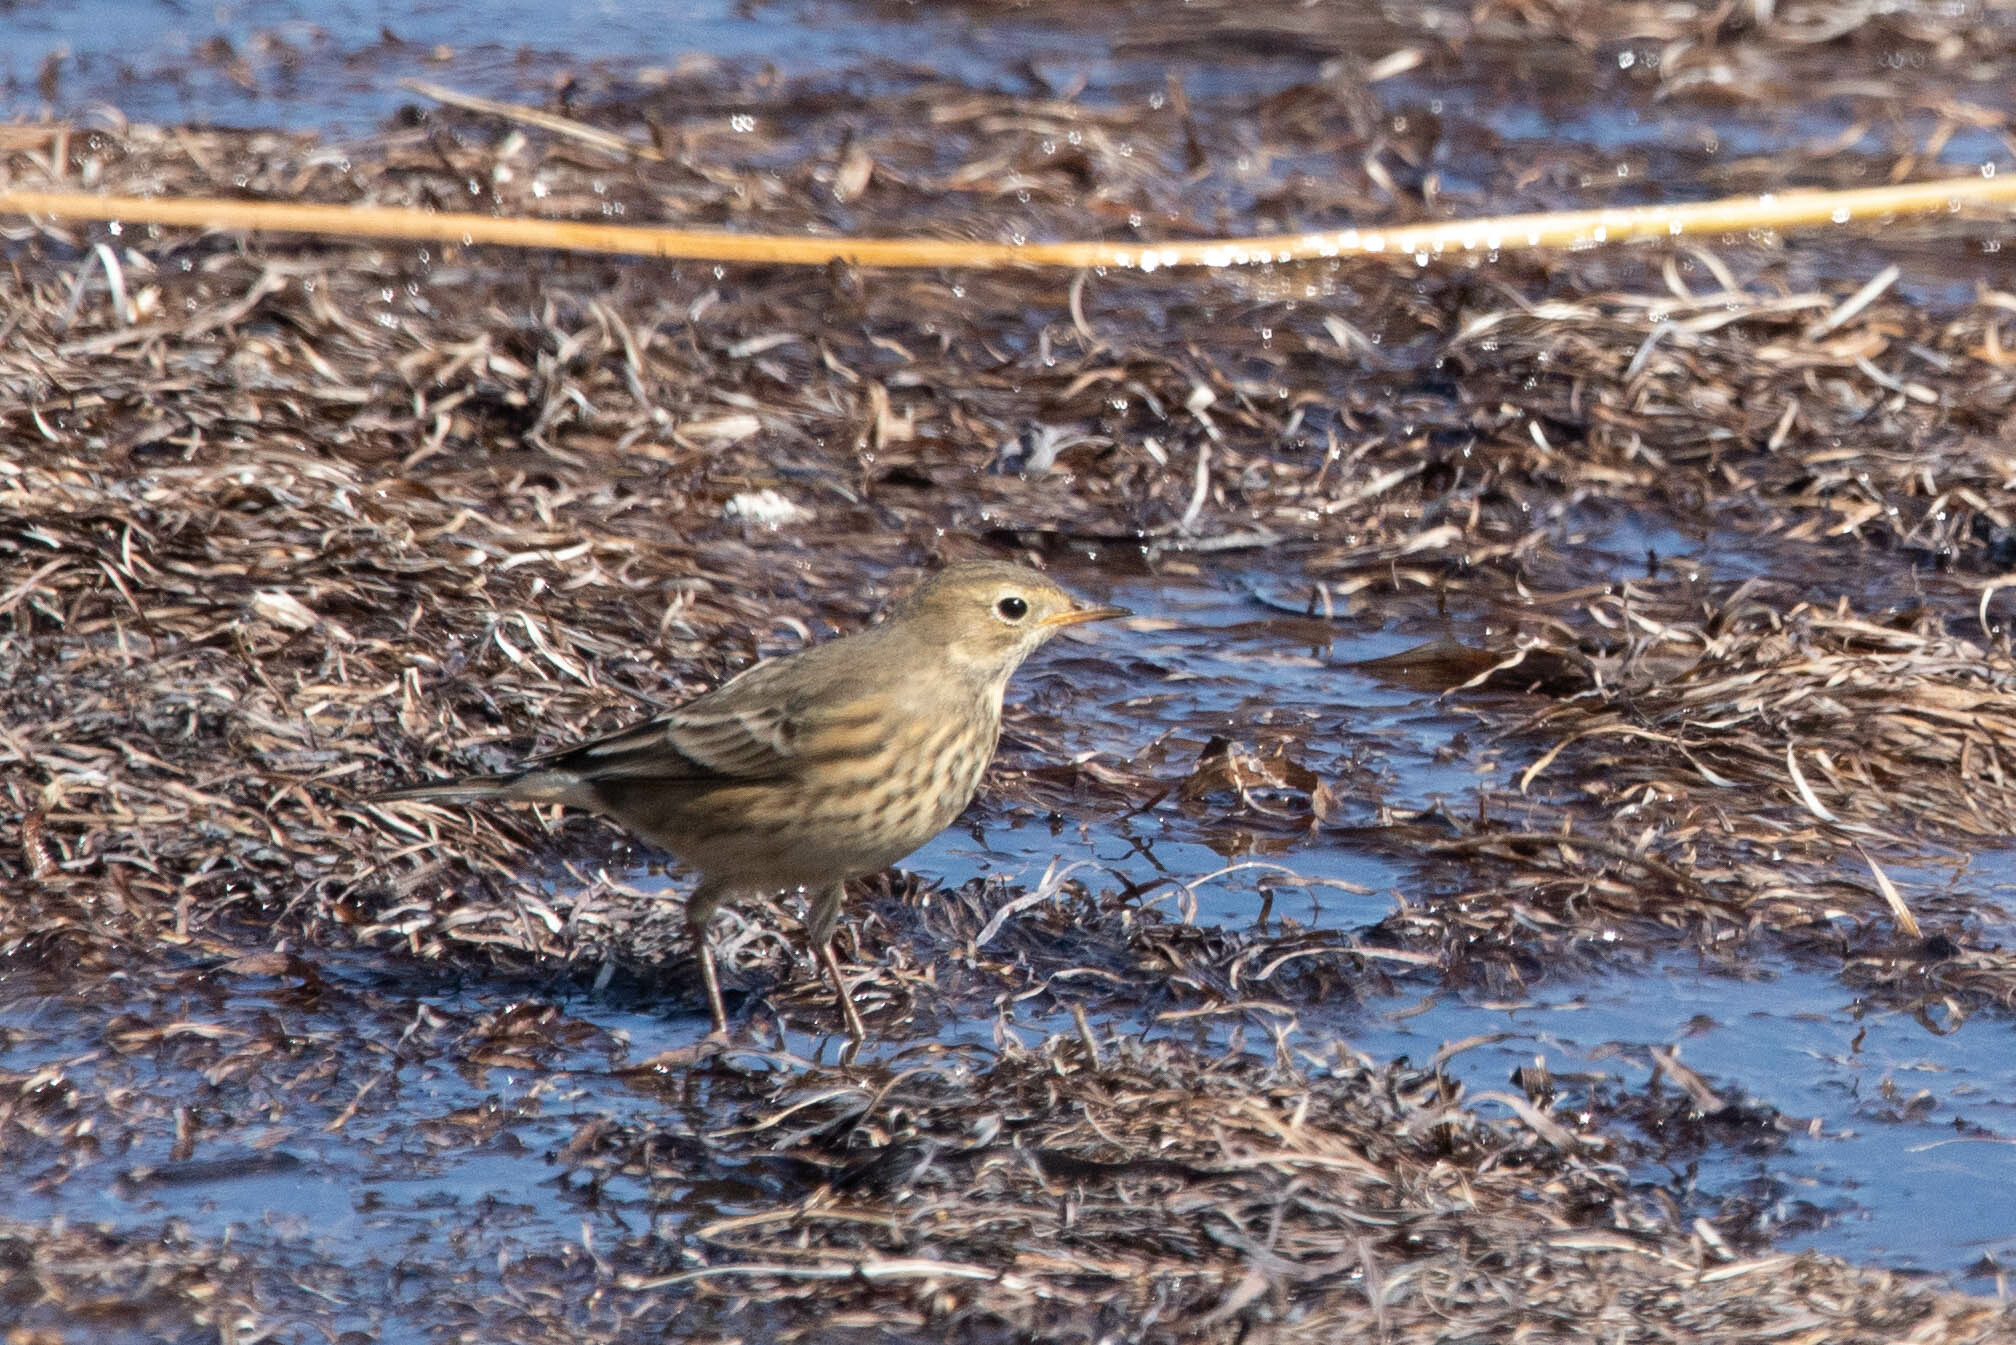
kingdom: Animalia
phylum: Chordata
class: Aves
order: Passeriformes
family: Motacillidae
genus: Anthus
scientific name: Anthus rubescens
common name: Buff-bellied pipit
